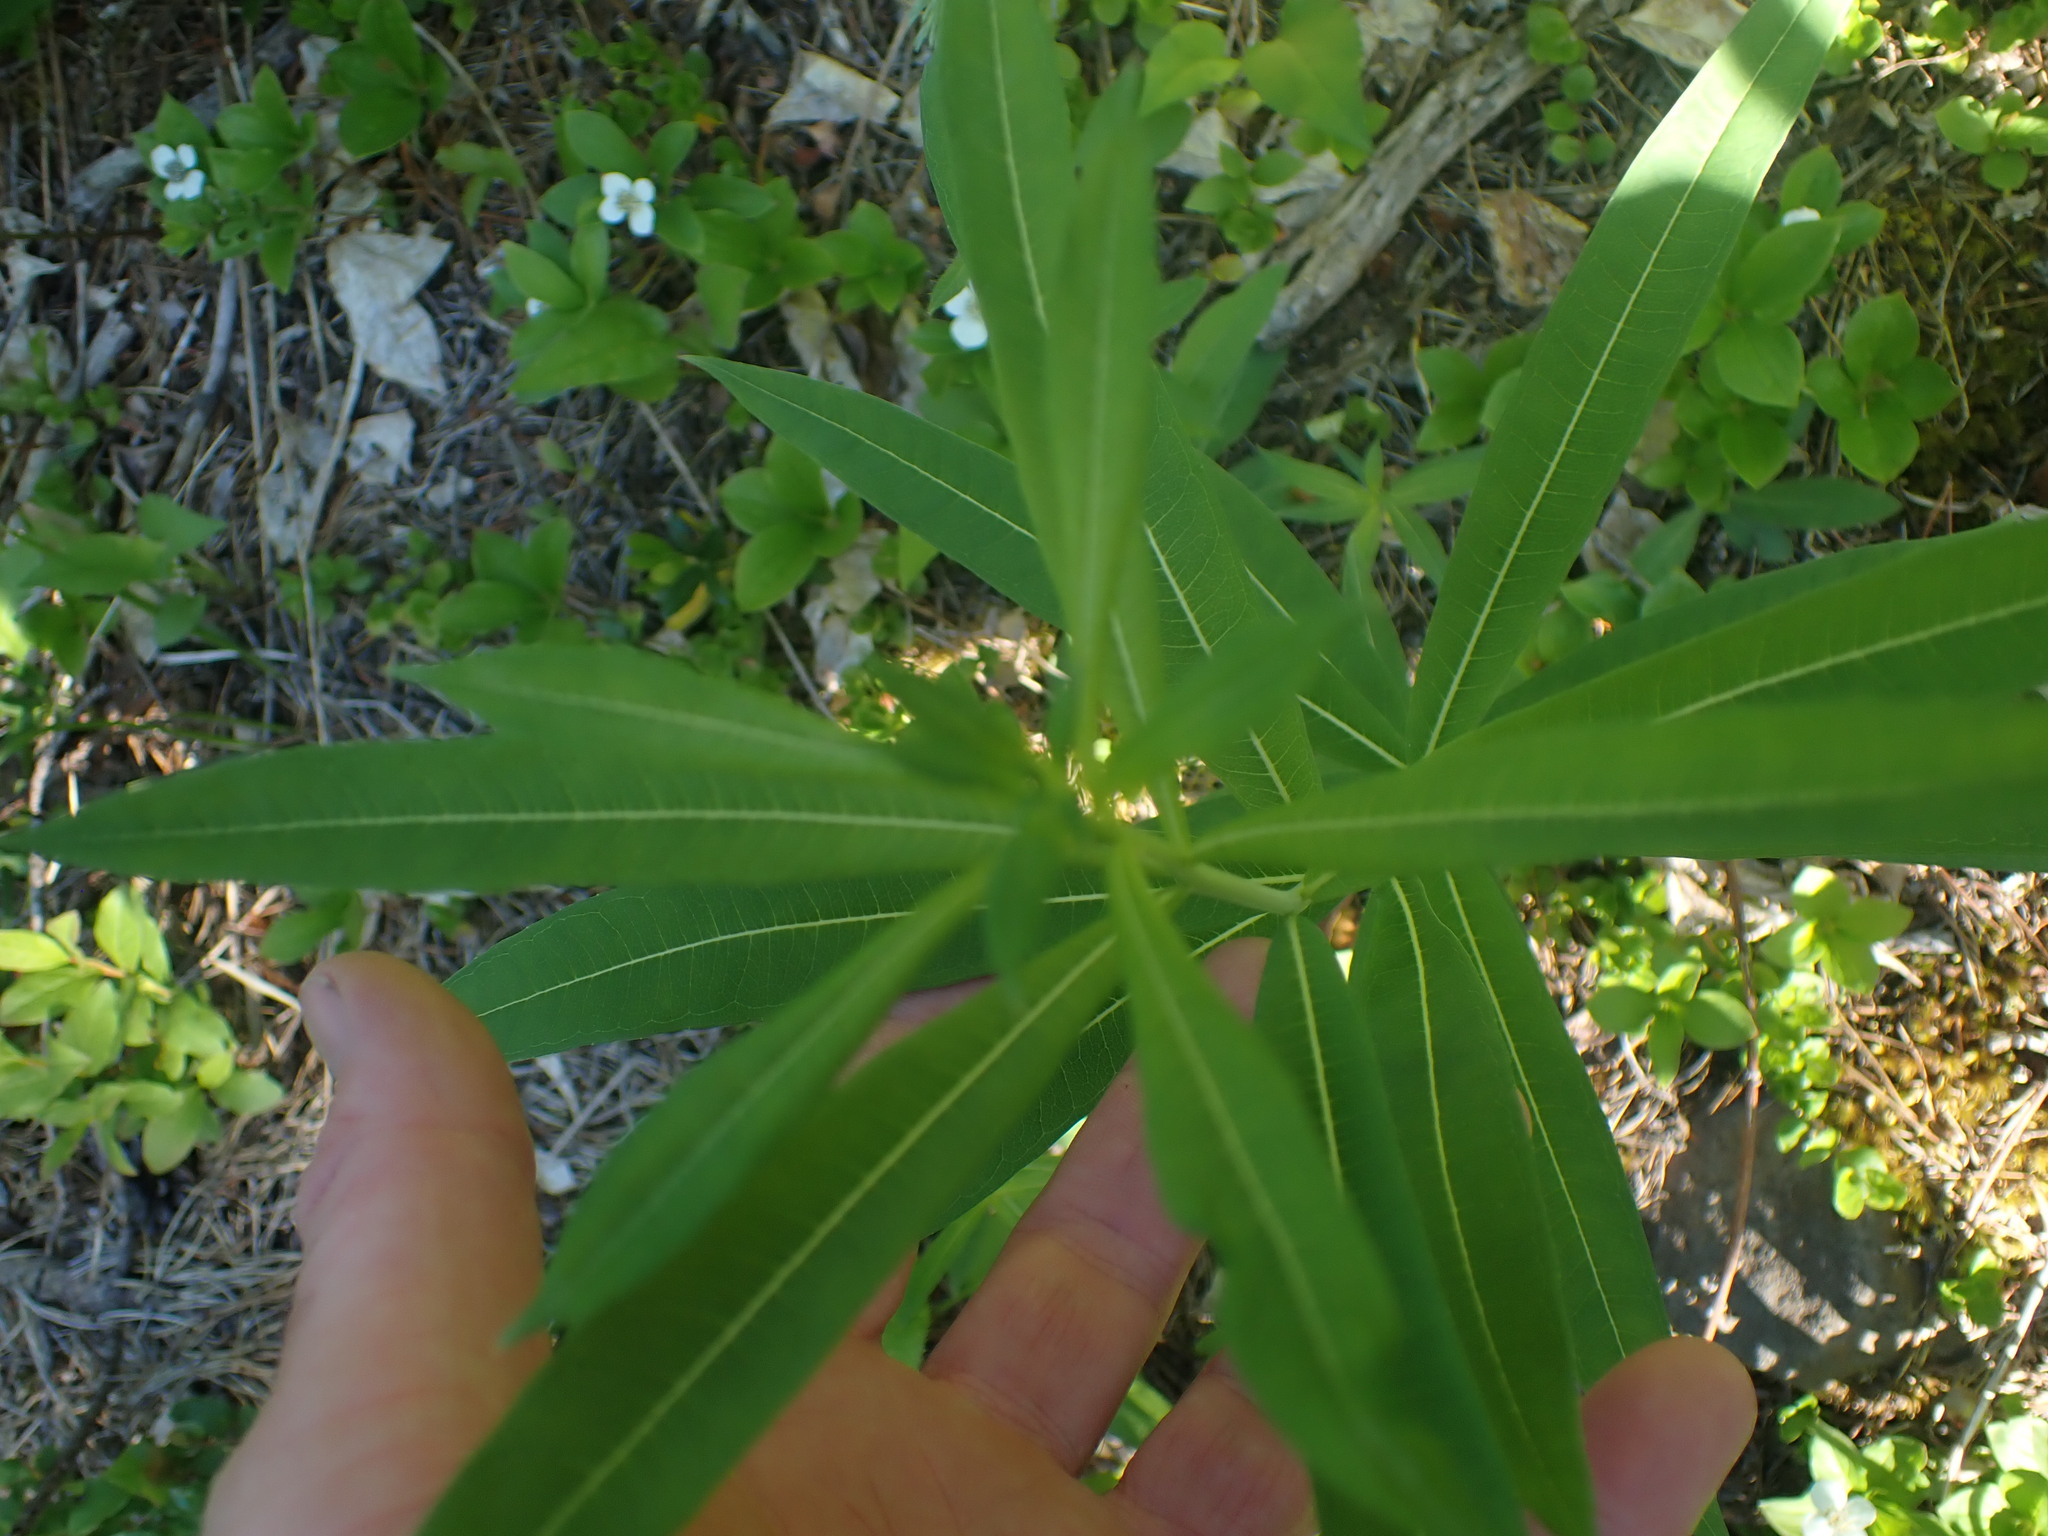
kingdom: Plantae
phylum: Tracheophyta
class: Magnoliopsida
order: Myrtales
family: Onagraceae
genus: Chamaenerion
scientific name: Chamaenerion angustifolium
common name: Fireweed
